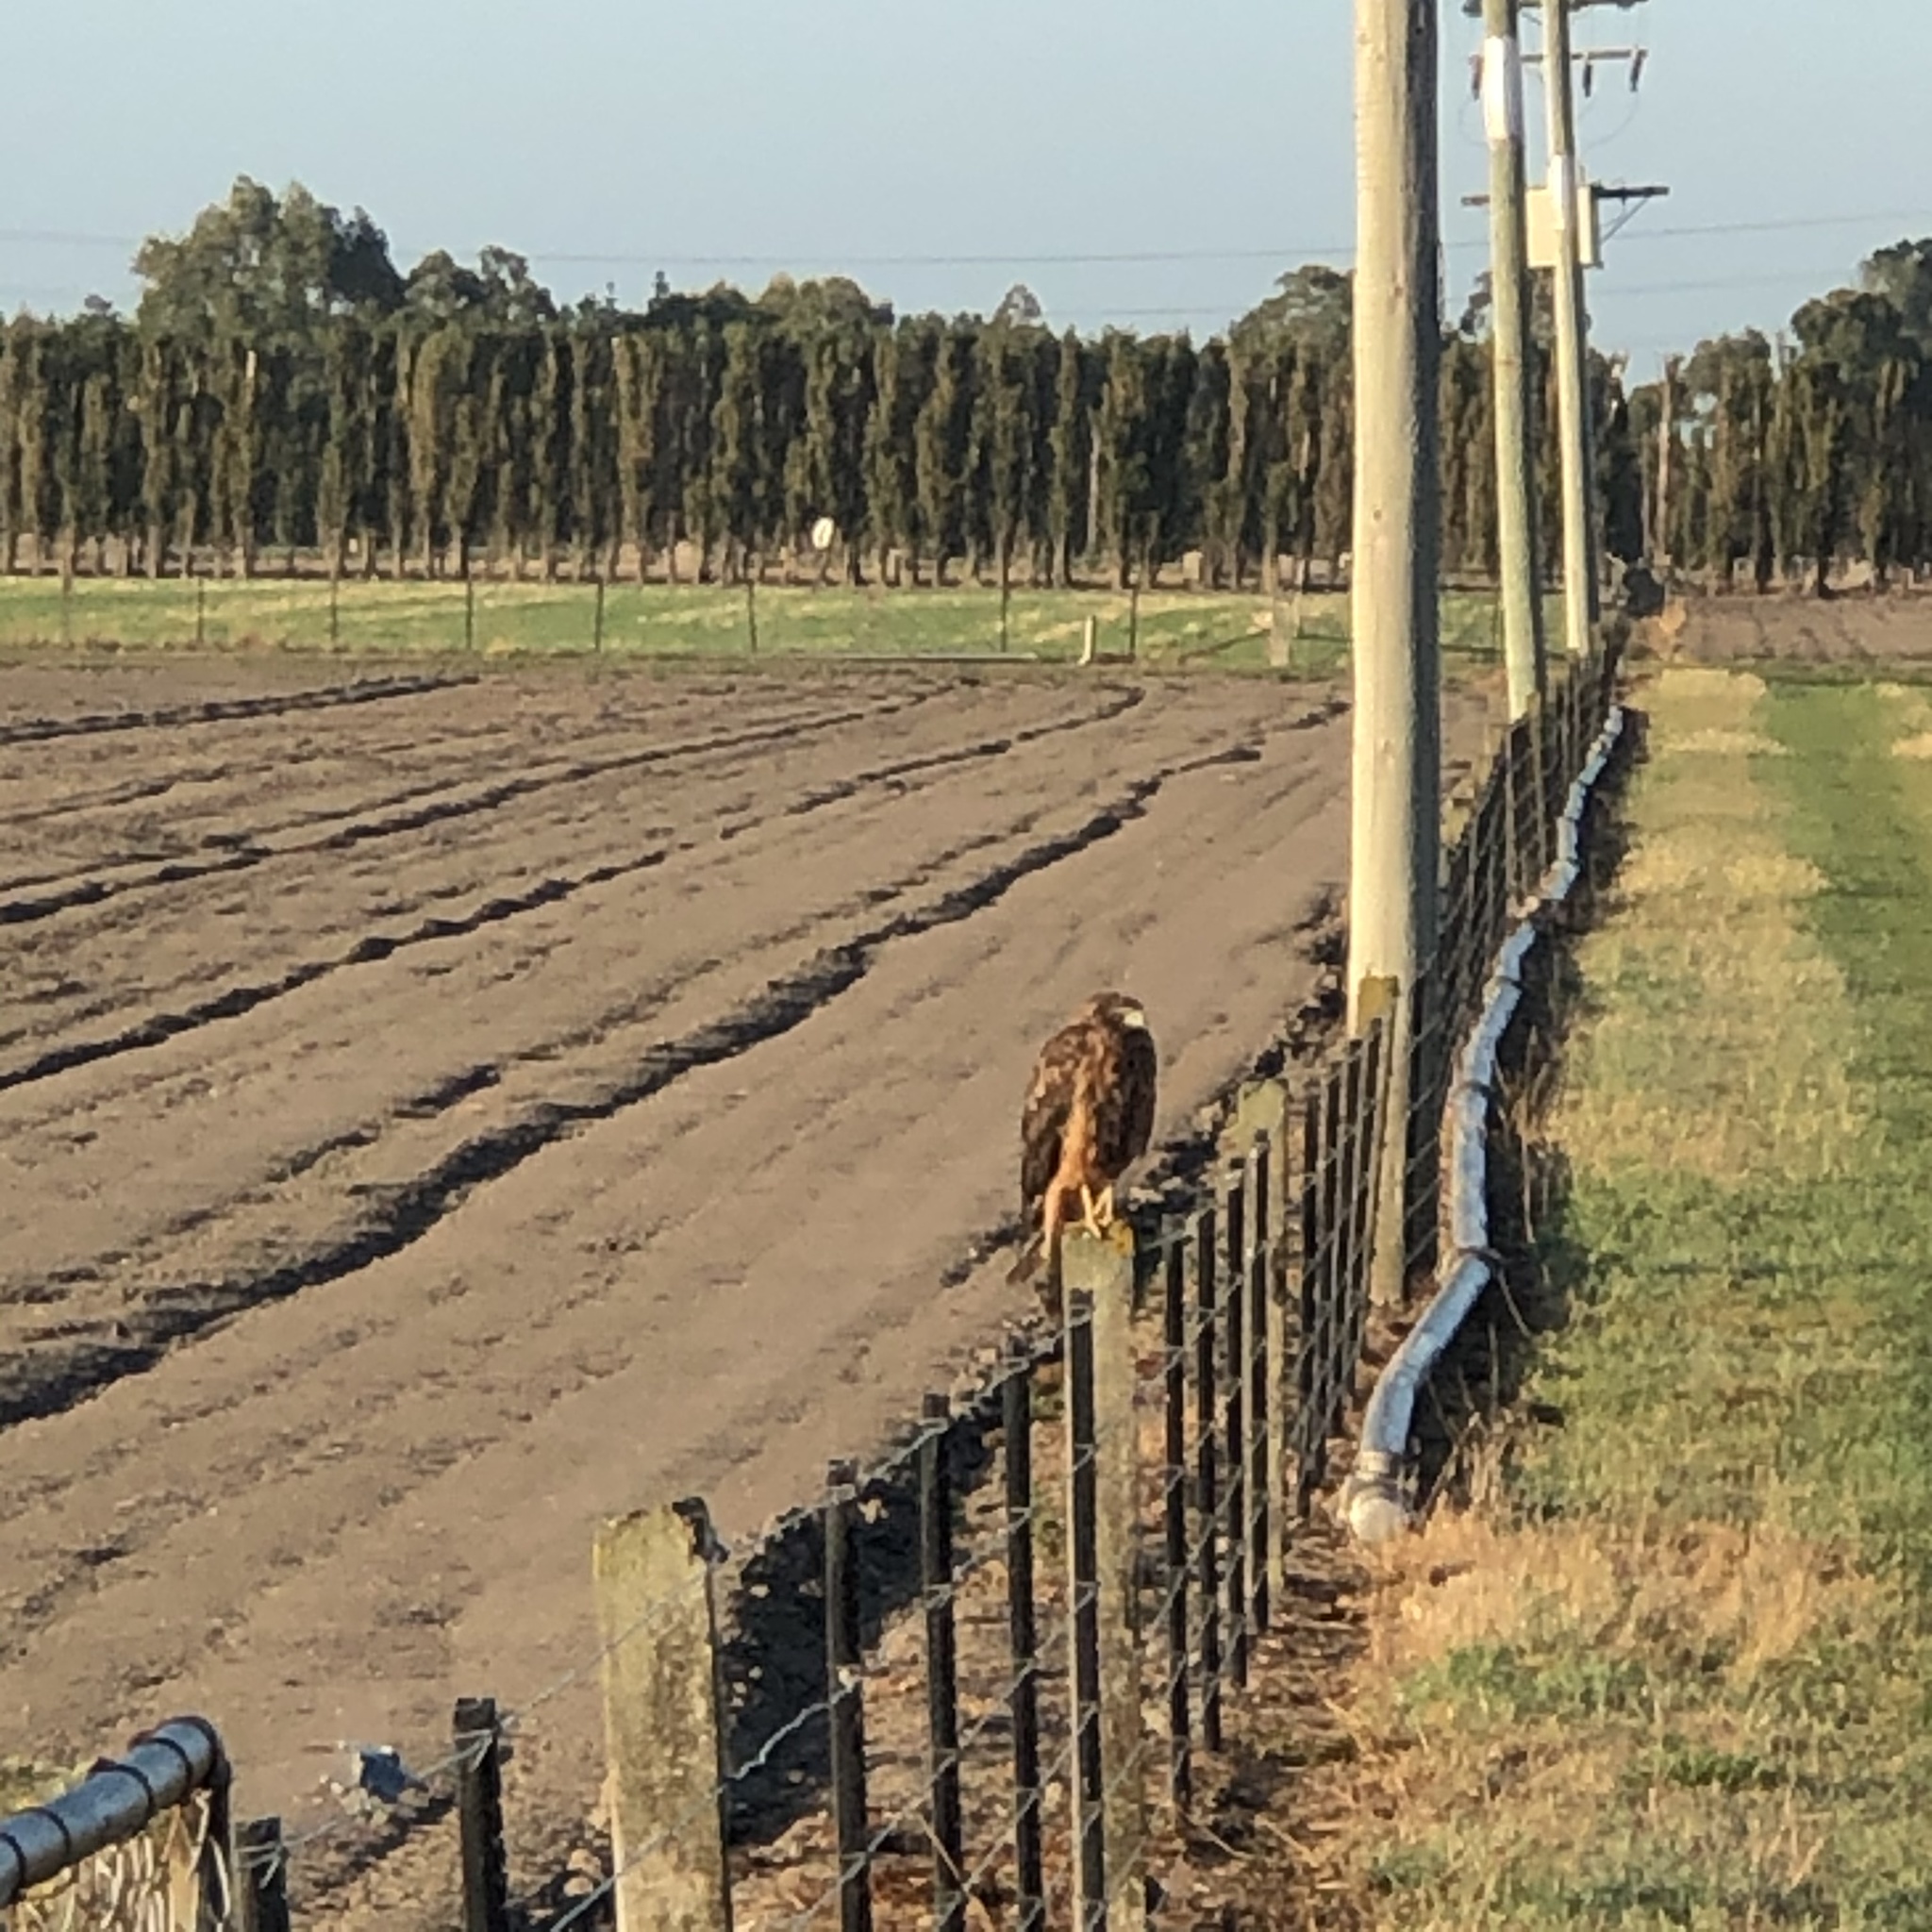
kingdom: Animalia
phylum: Chordata
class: Aves
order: Accipitriformes
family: Accipitridae
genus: Circus
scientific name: Circus approximans
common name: Swamp harrier
